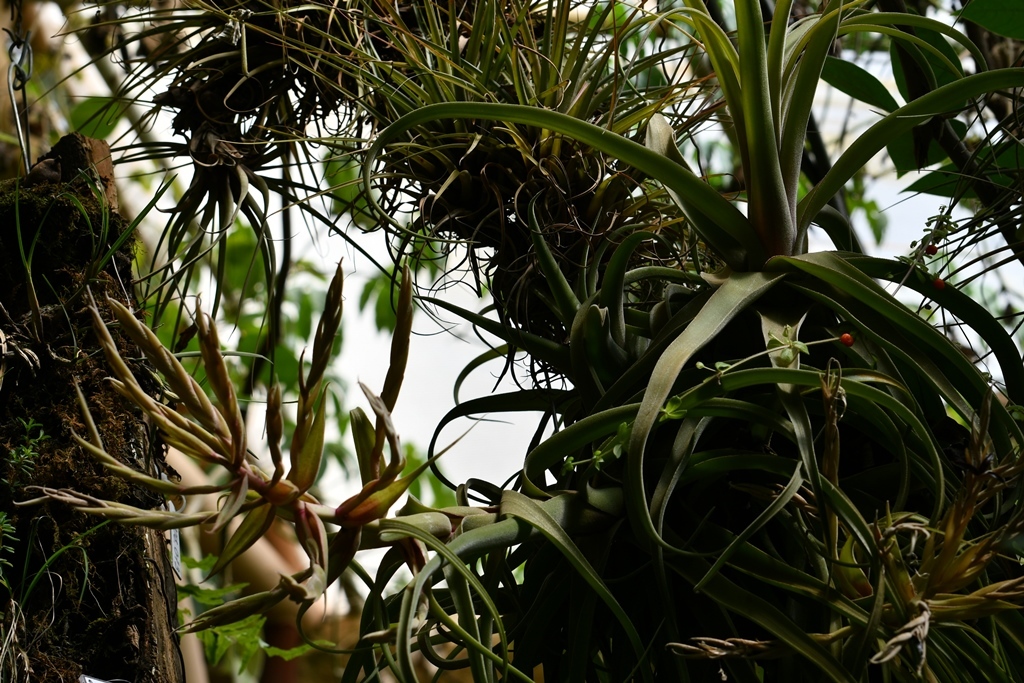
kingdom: Plantae
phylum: Tracheophyta
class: Liliopsida
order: Poales
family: Bromeliaceae
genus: Tillandsia
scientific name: Tillandsia streptophylla
